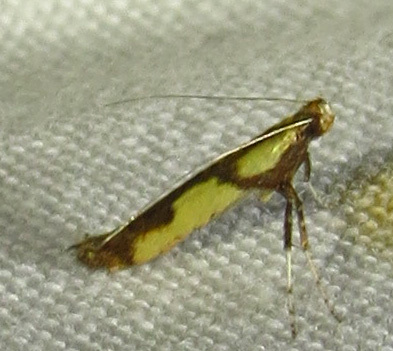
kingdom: Animalia
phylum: Arthropoda
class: Insecta
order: Lepidoptera
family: Gracillariidae
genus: Caloptilia
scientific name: Caloptilia blandella
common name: Walnut caloptilia moth
